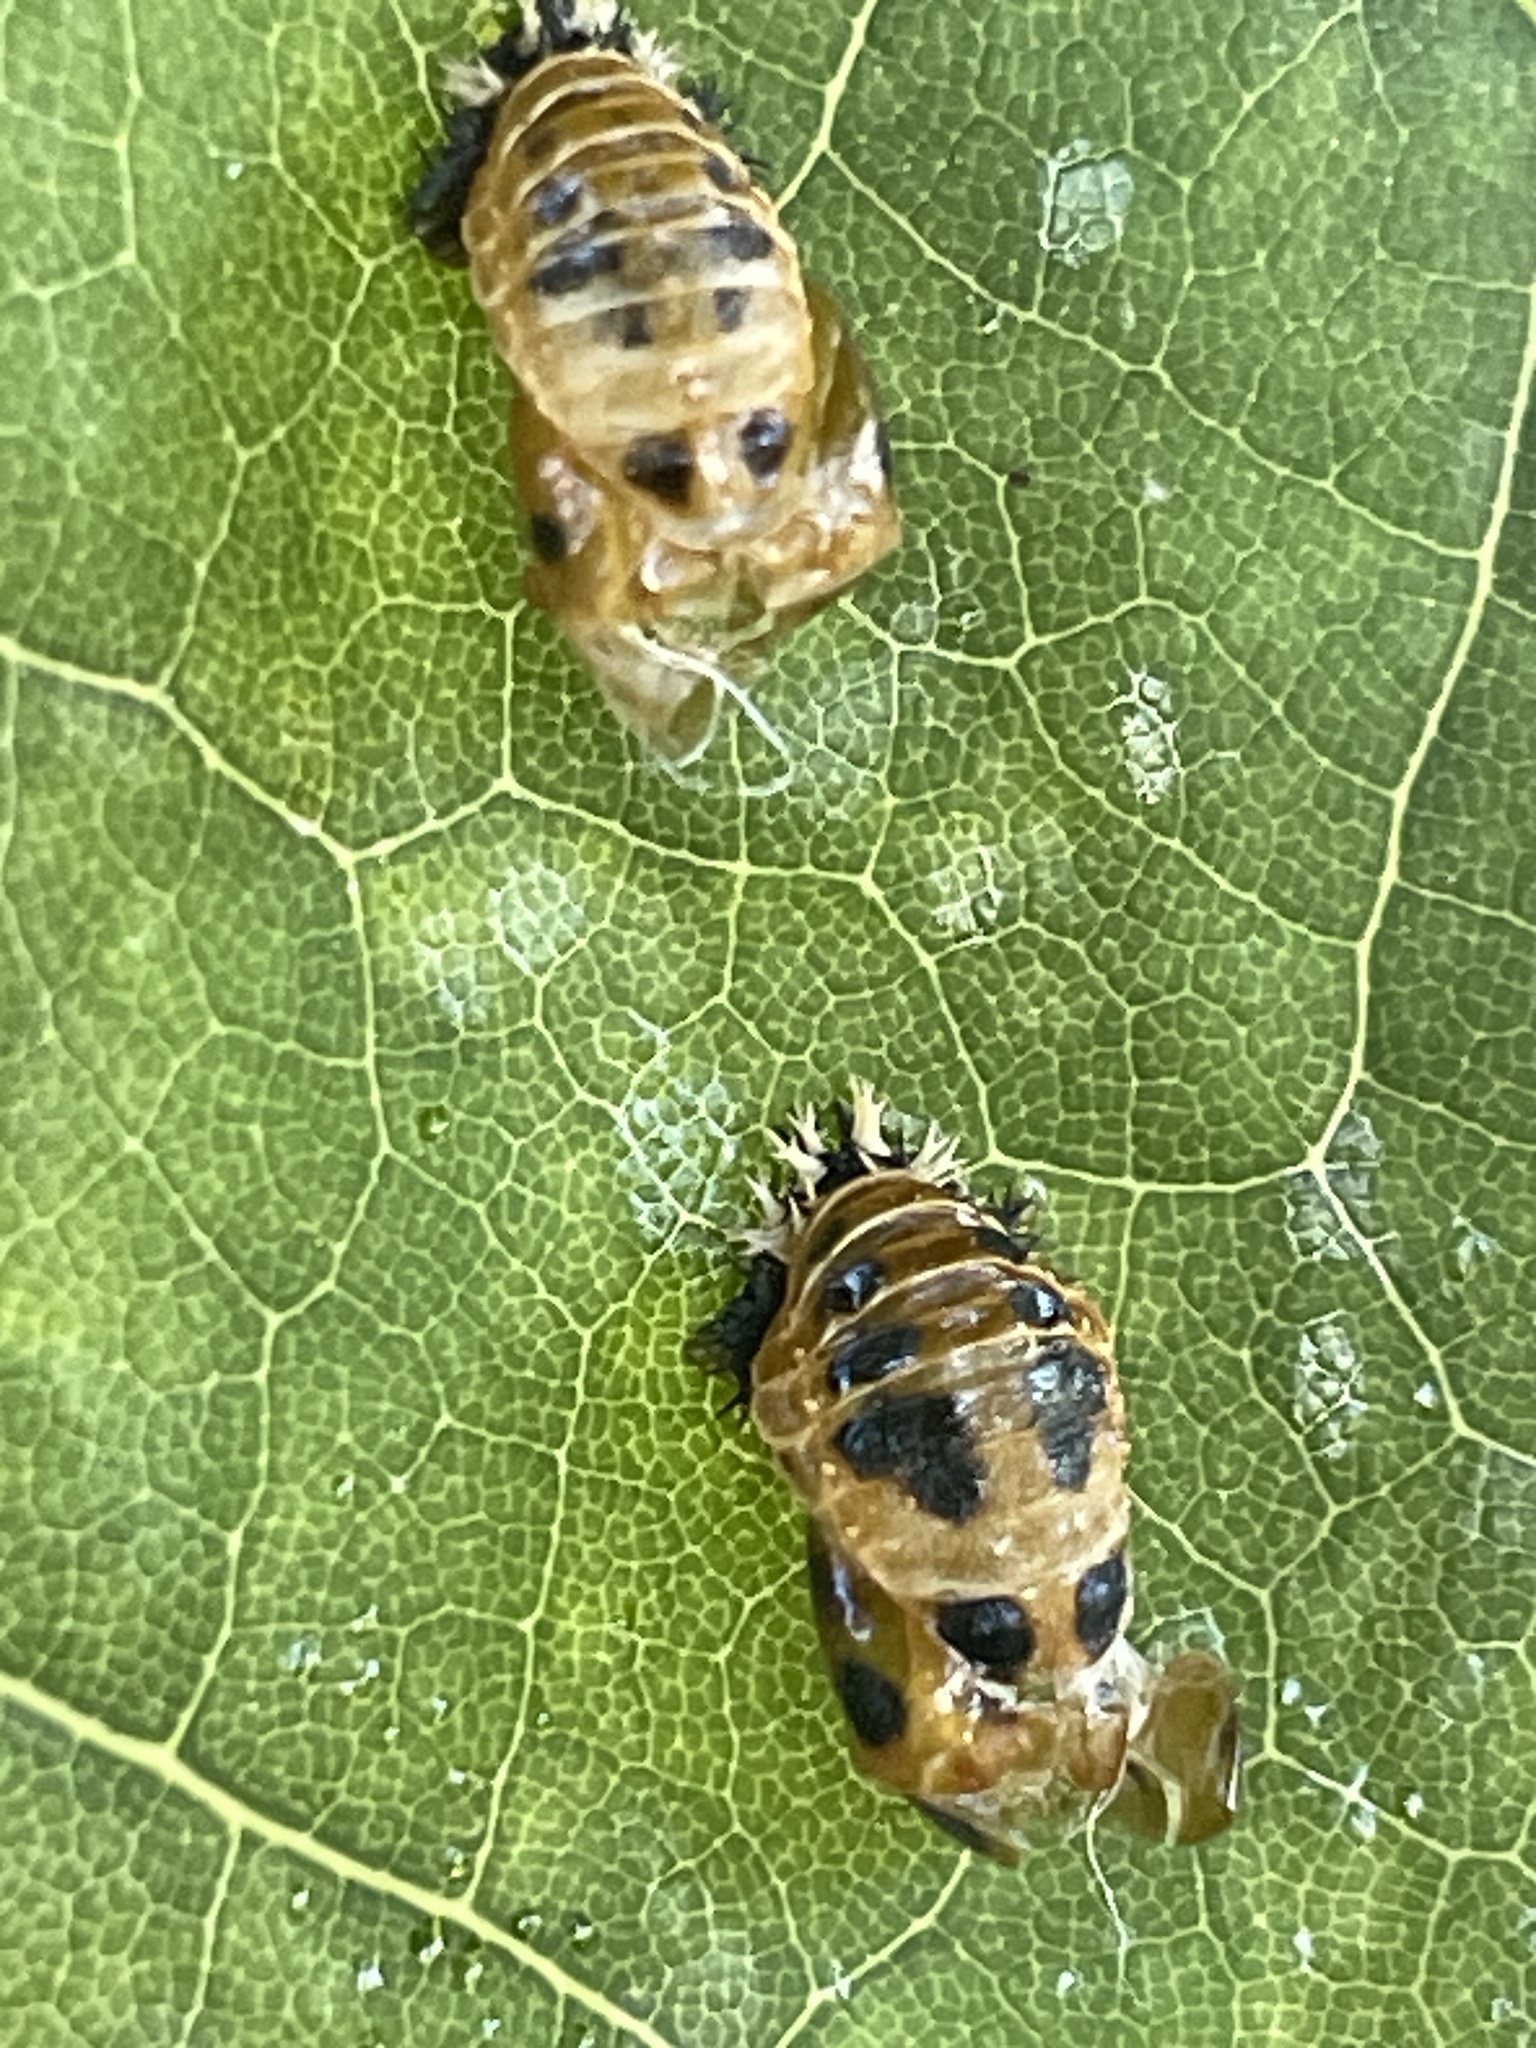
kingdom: Animalia
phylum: Arthropoda
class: Insecta
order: Coleoptera
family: Coccinellidae
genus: Harmonia
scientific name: Harmonia axyridis
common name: Harlequin ladybird
